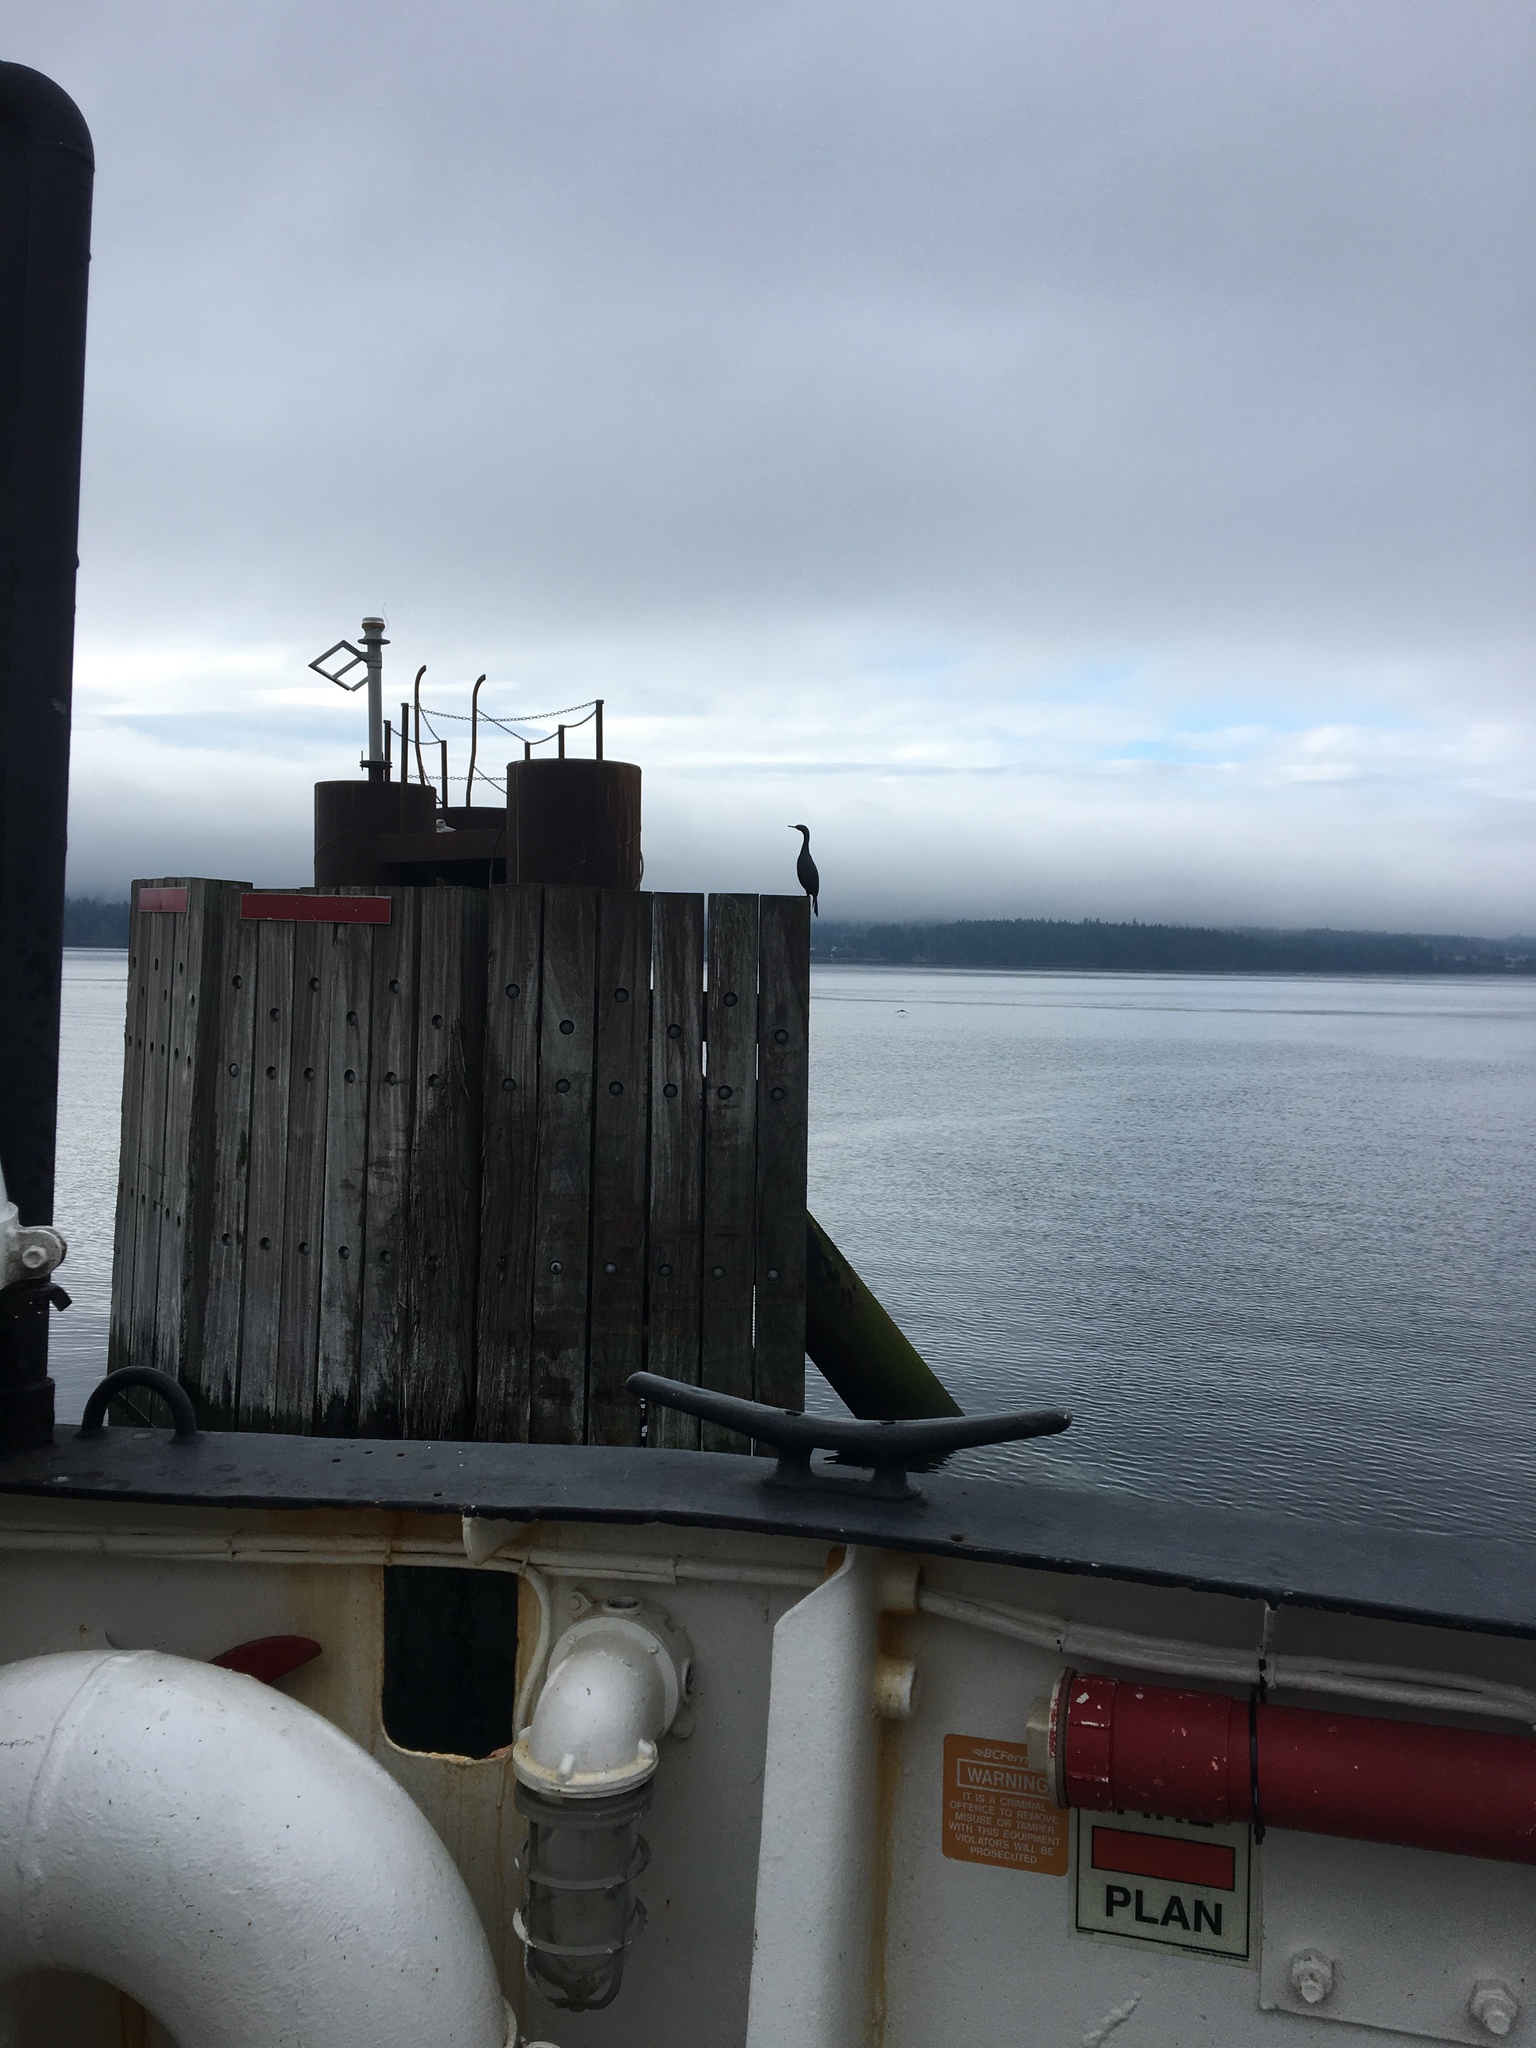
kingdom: Animalia
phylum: Chordata
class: Aves
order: Suliformes
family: Phalacrocoracidae
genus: Phalacrocorax
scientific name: Phalacrocorax pelagicus
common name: Pelagic cormorant
